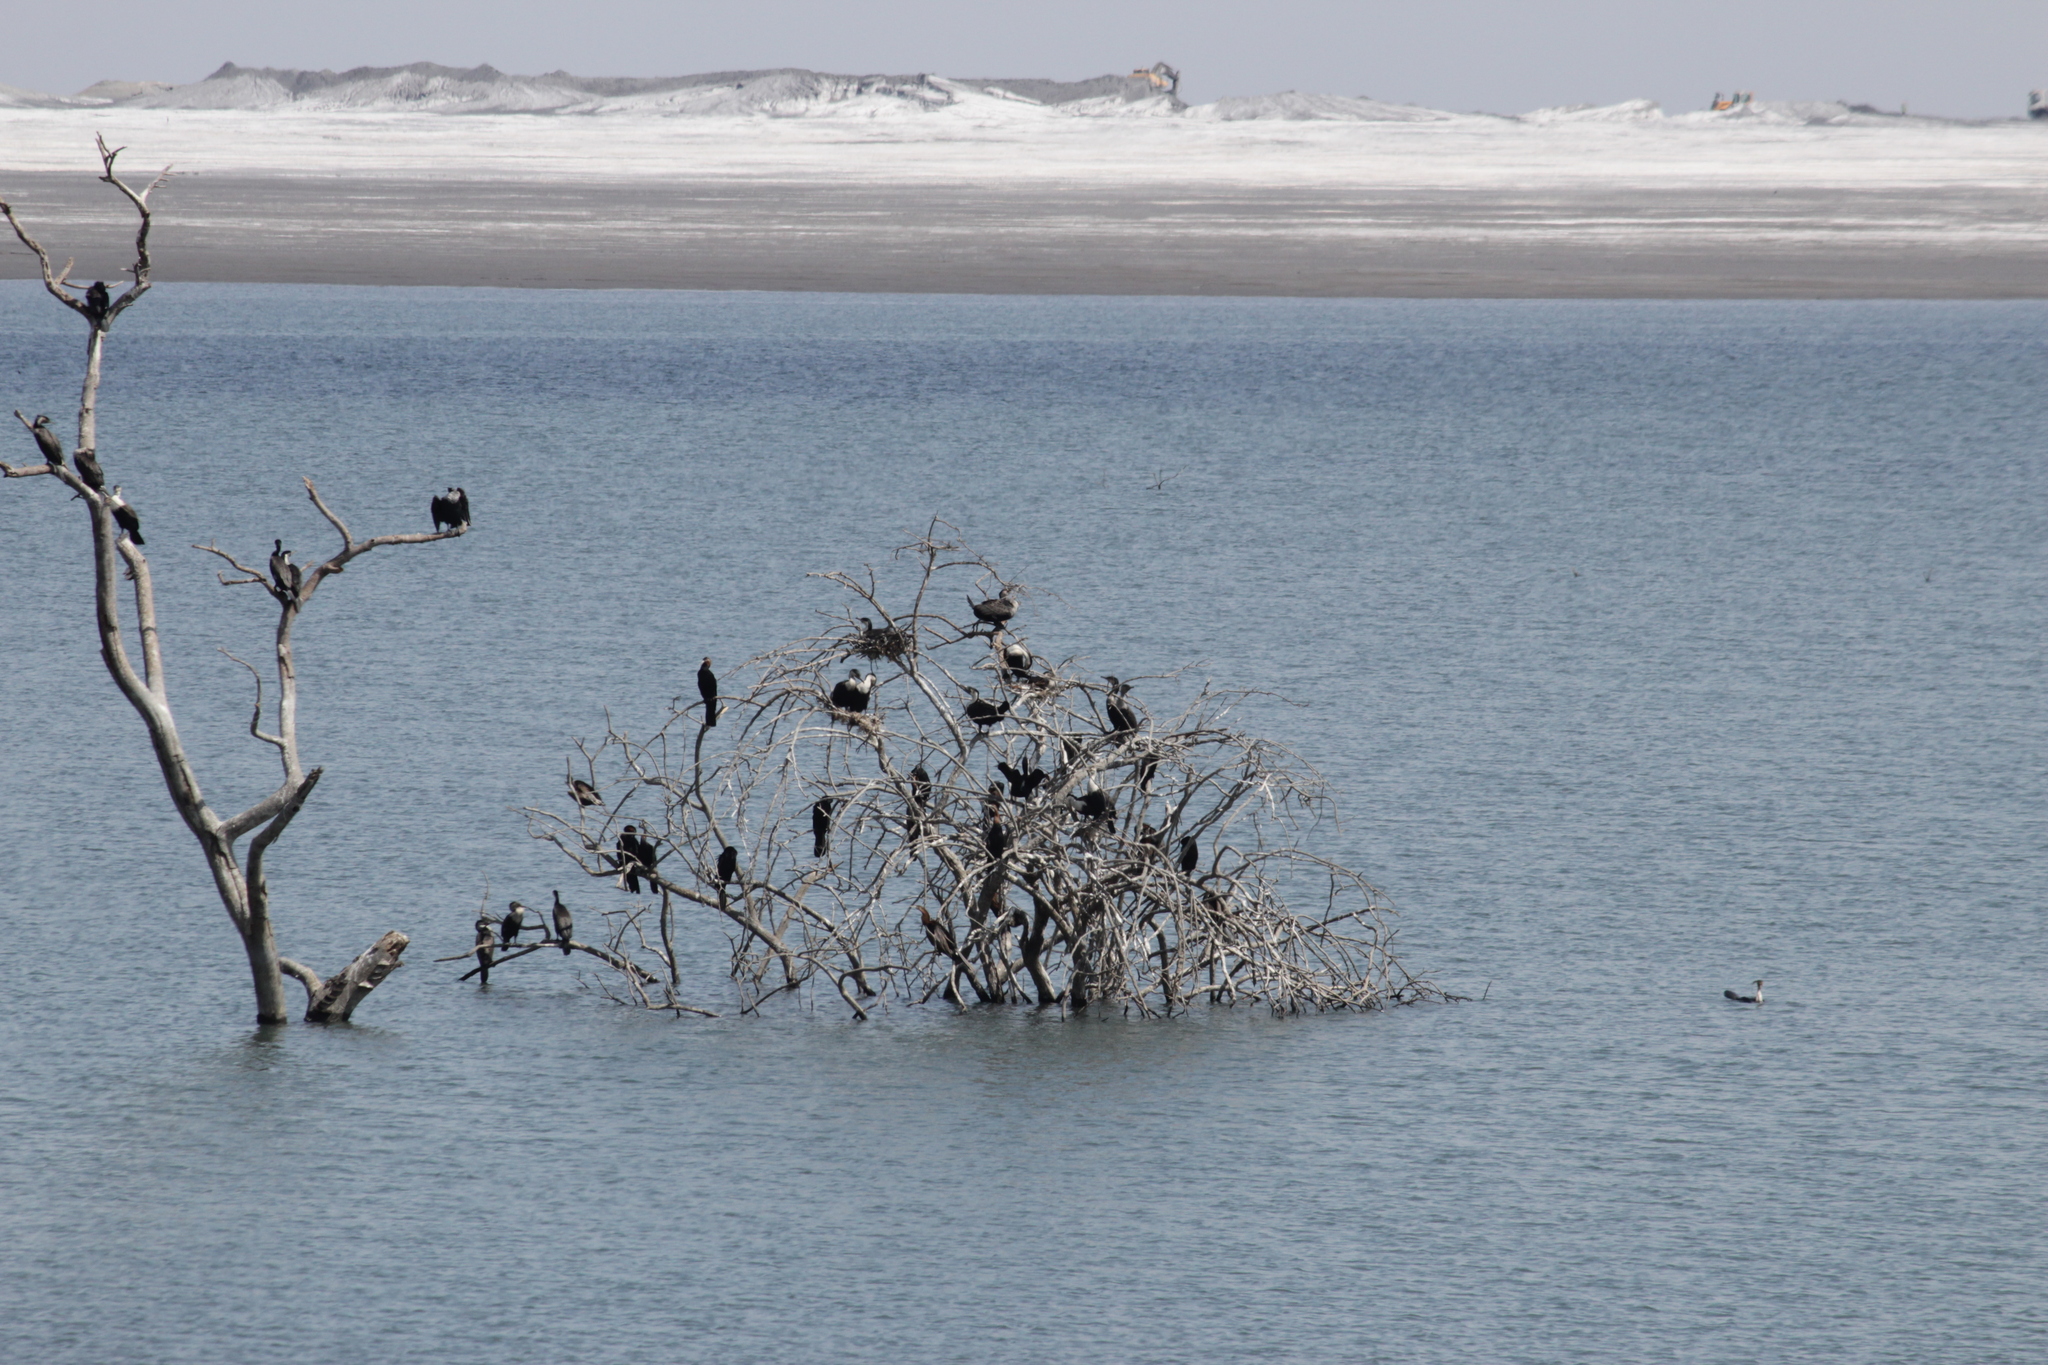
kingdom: Animalia
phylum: Chordata
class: Aves
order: Suliformes
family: Phalacrocoracidae
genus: Phalacrocorax
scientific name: Phalacrocorax carbo
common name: Great cormorant
